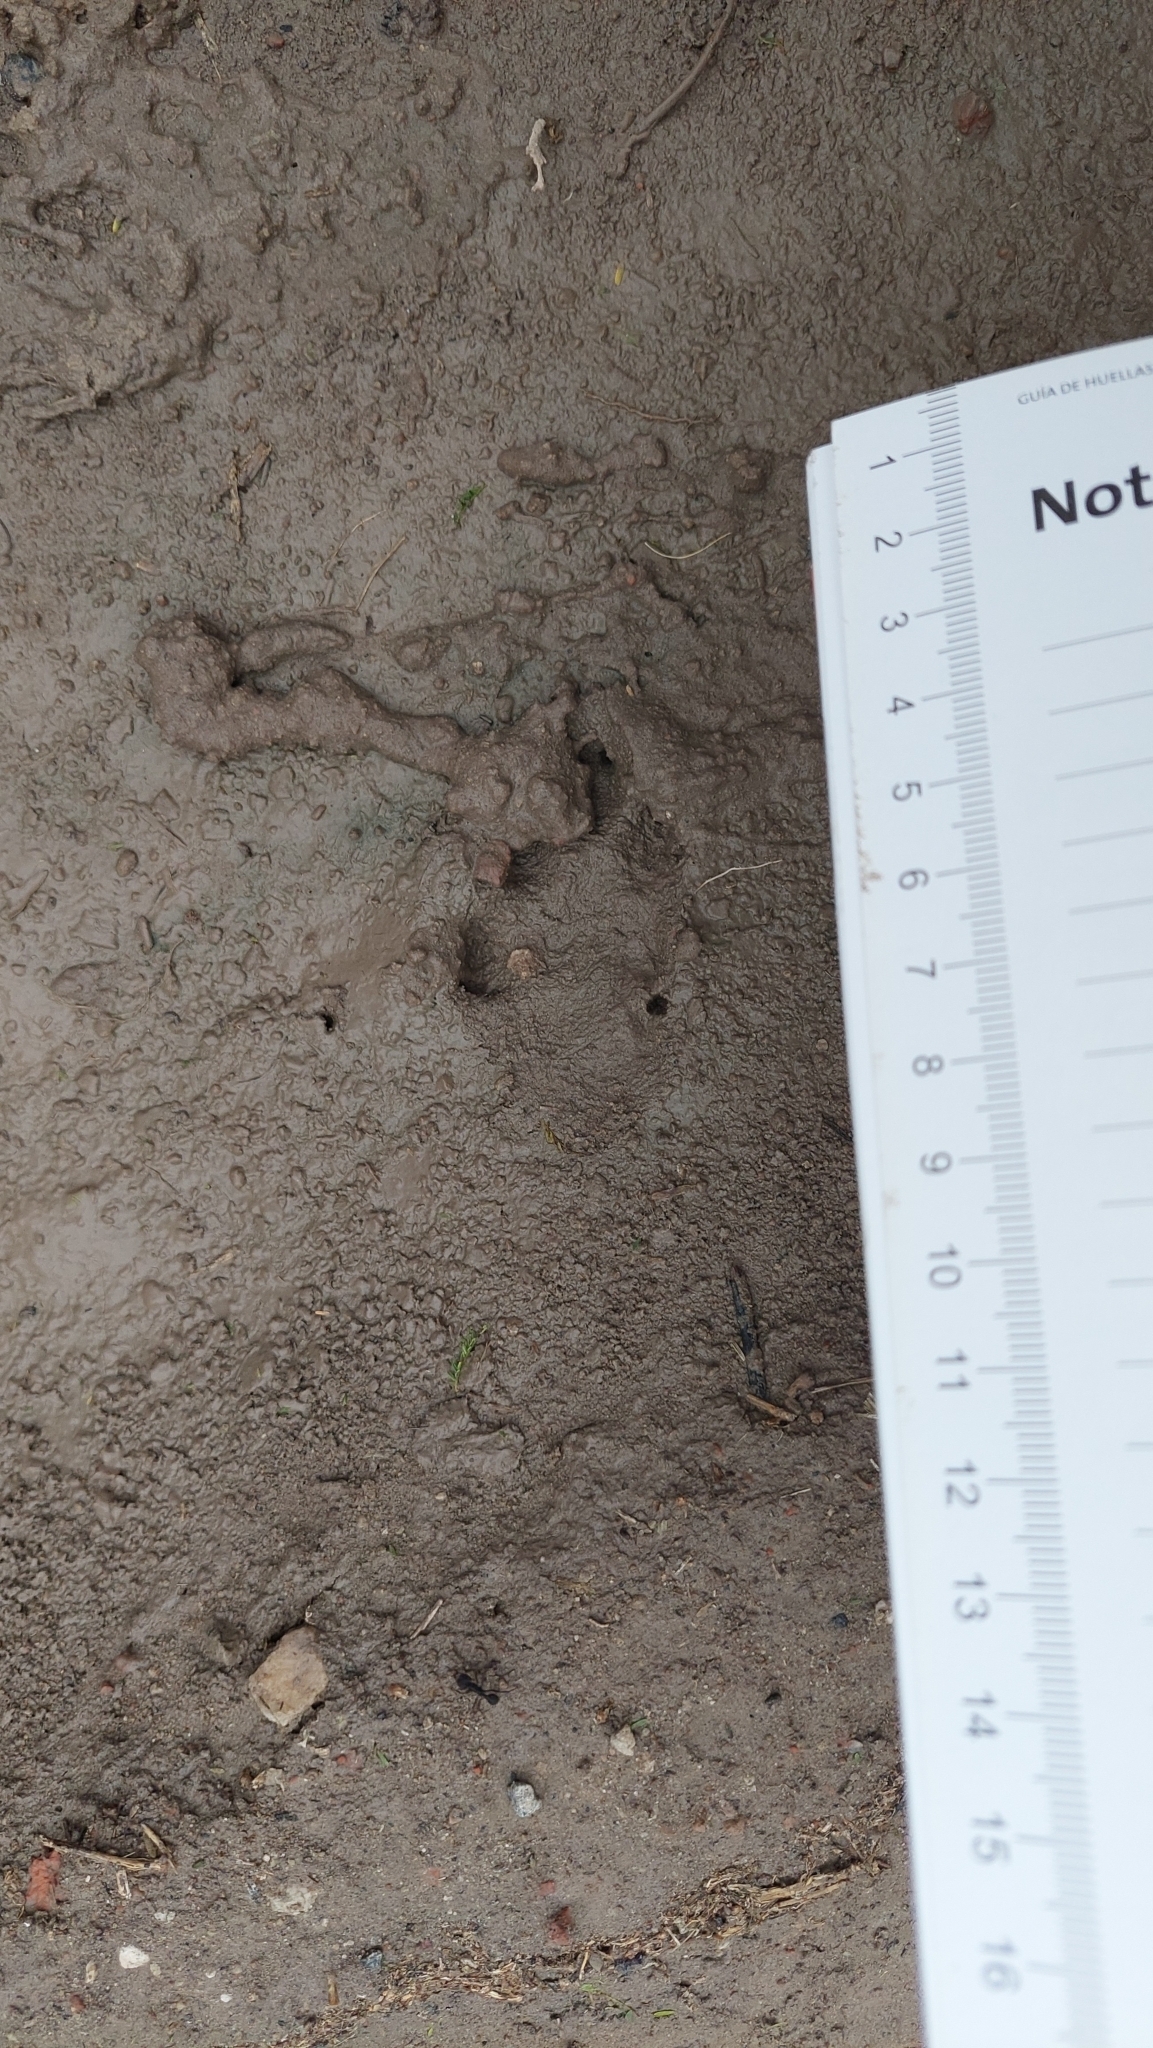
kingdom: Animalia
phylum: Chordata
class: Mammalia
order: Lagomorpha
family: Leporidae
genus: Lepus
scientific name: Lepus europaeus
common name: European hare
